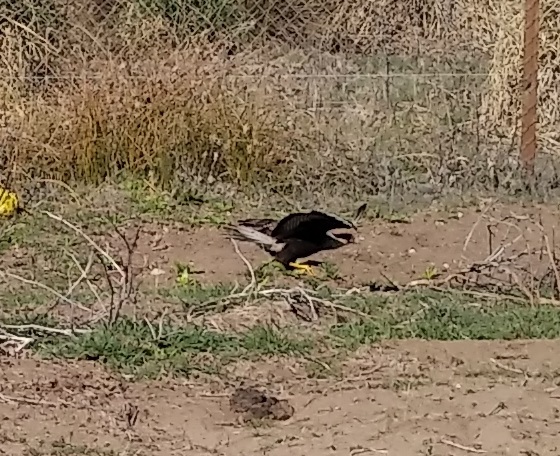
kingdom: Animalia
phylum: Chordata
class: Aves
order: Falconiformes
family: Falconidae
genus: Caracara
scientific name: Caracara plancus
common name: Southern caracara
